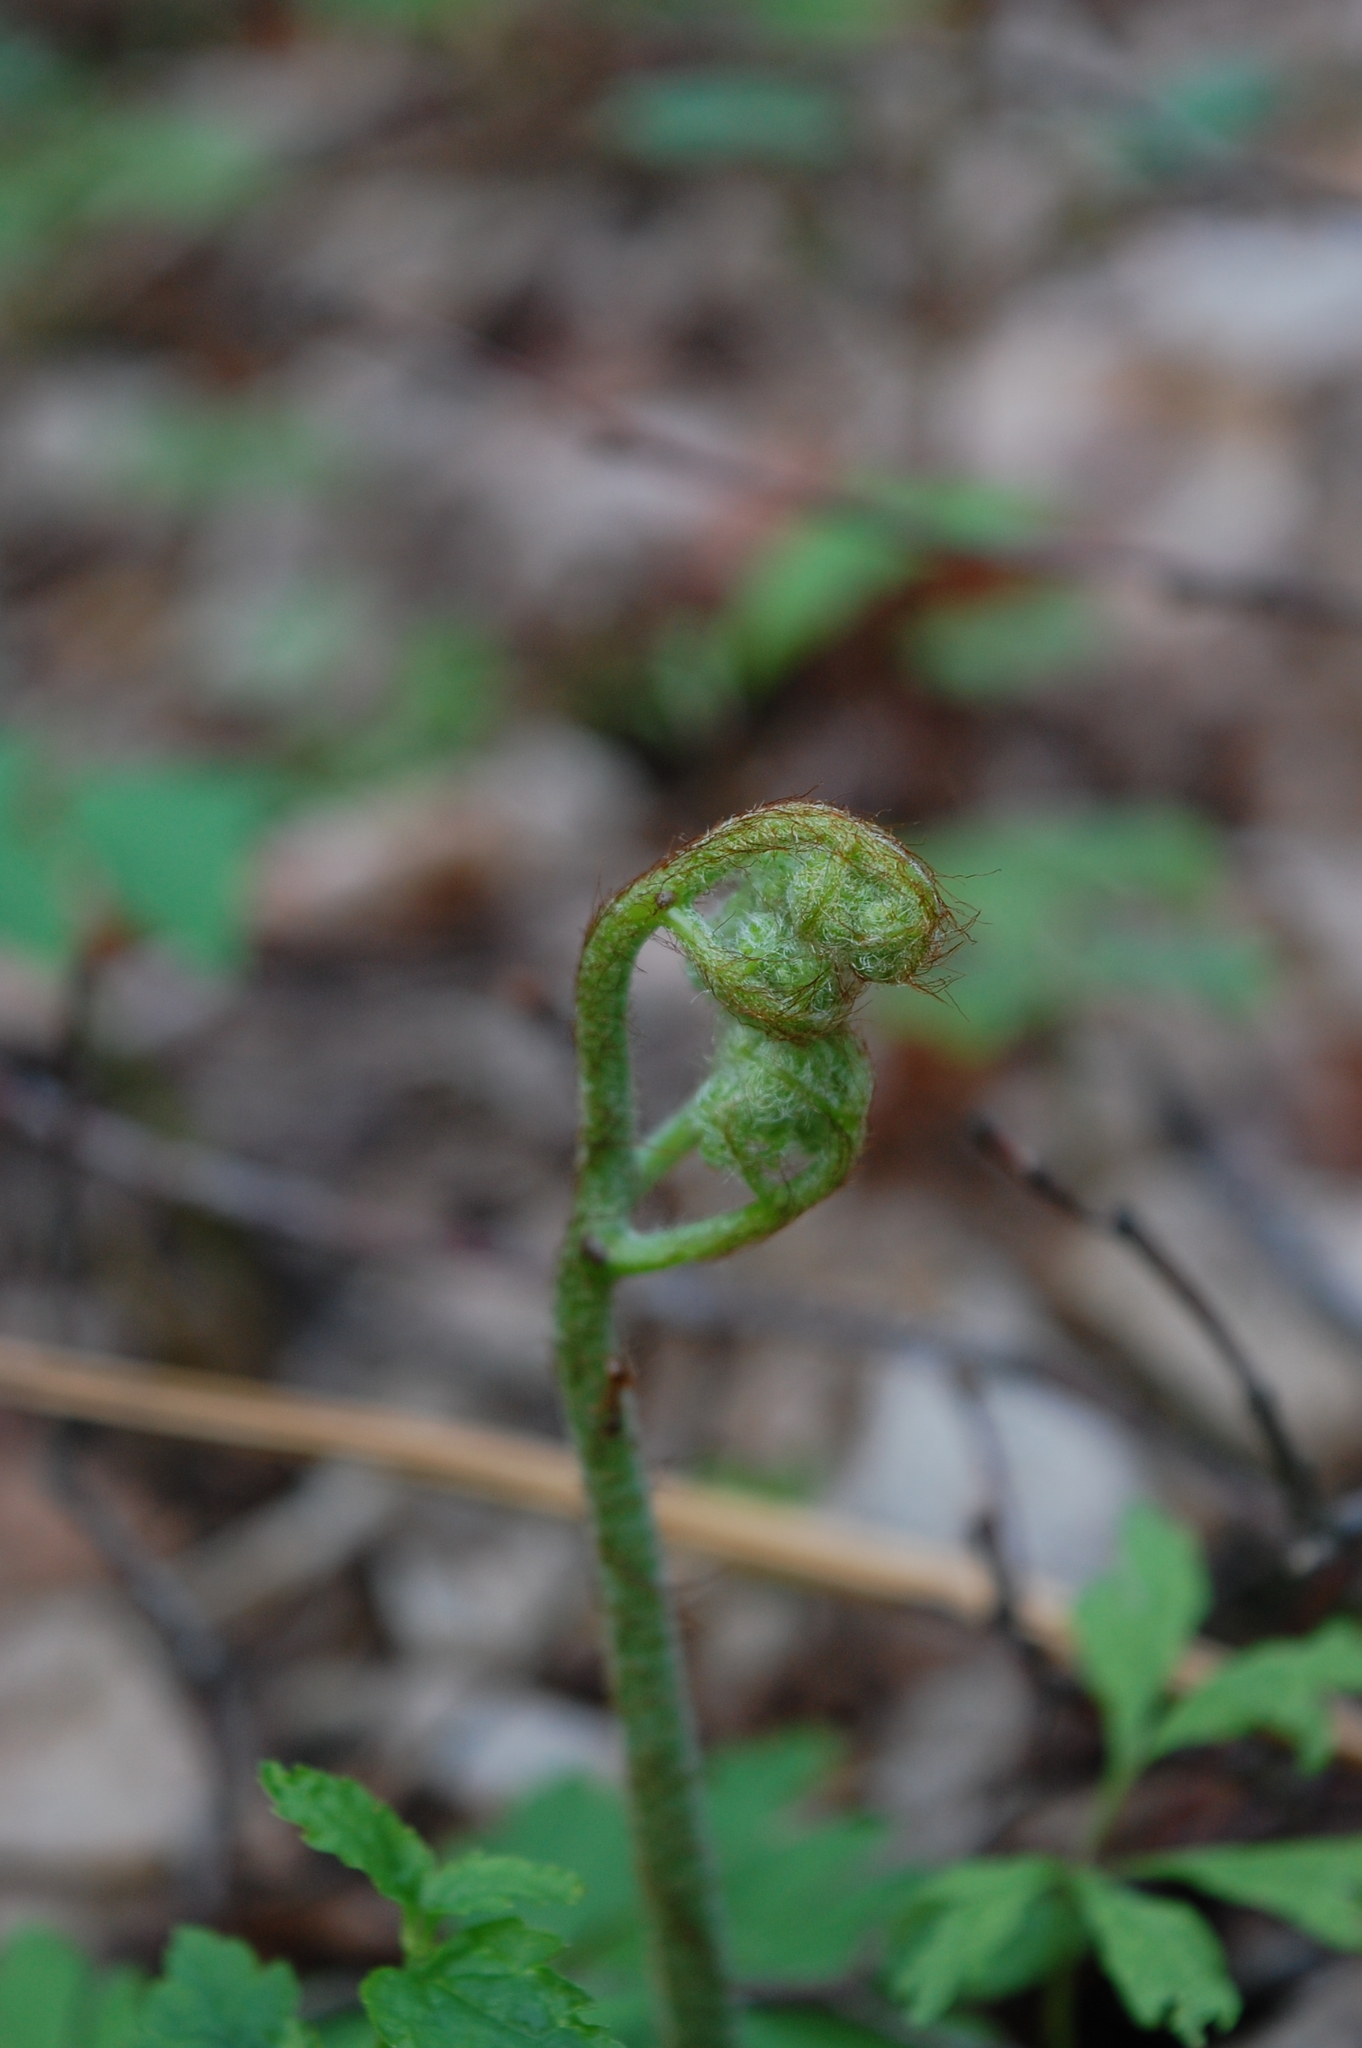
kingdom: Plantae
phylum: Tracheophyta
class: Polypodiopsida
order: Polypodiales
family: Dennstaedtiaceae
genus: Pteridium
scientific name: Pteridium aquilinum
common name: Bracken
